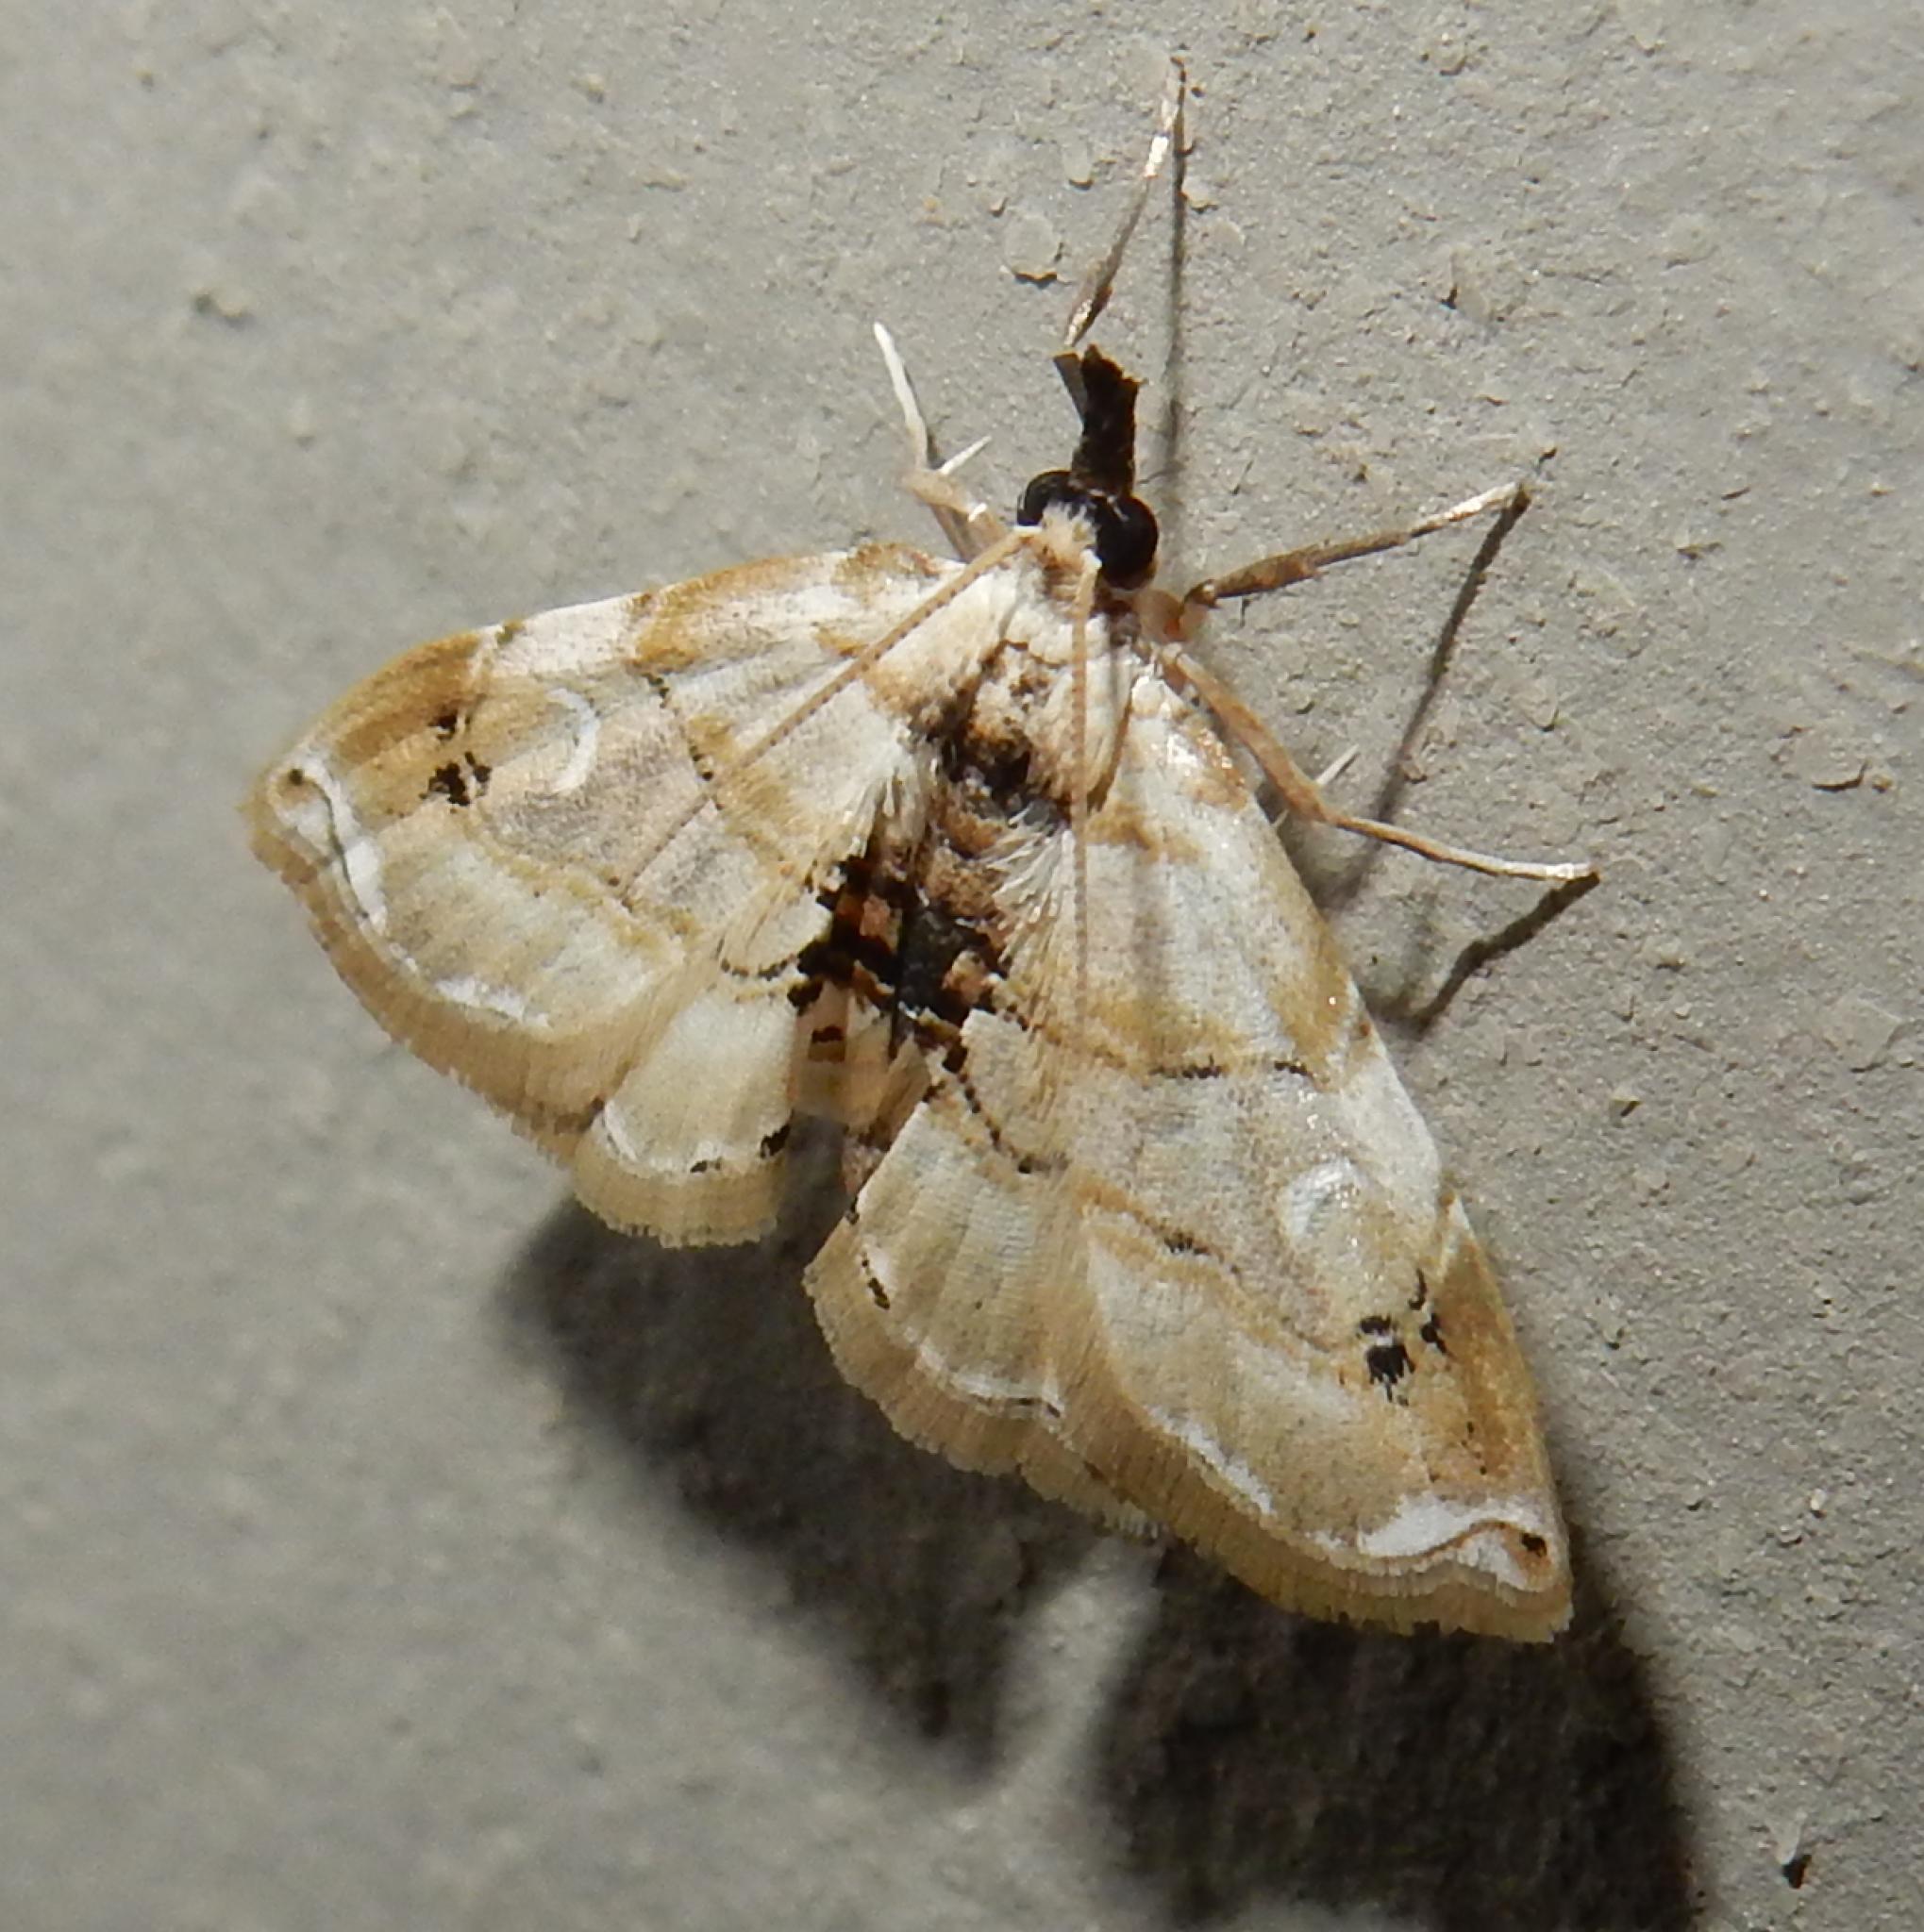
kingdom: Animalia
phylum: Arthropoda
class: Insecta
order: Lepidoptera
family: Crambidae
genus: Melouia
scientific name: Melouia krooni
